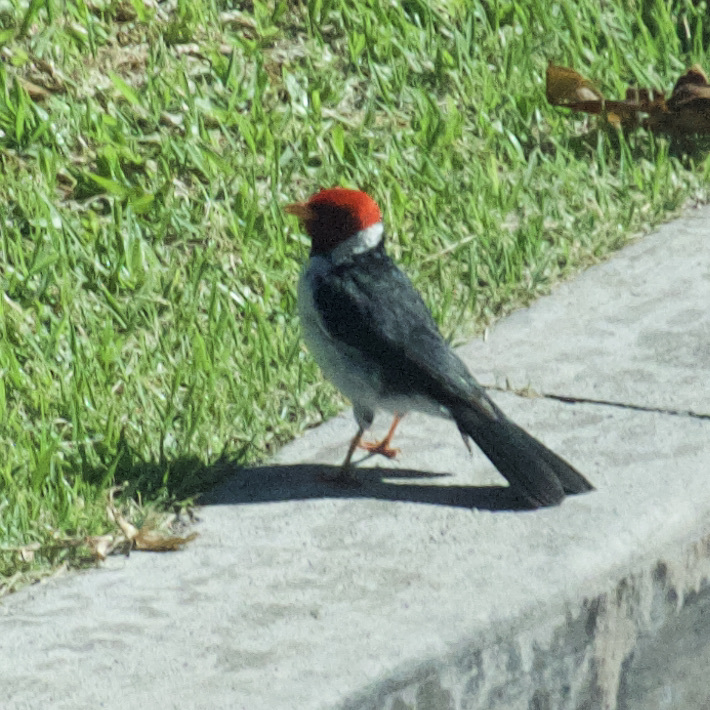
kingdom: Animalia
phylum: Chordata
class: Aves
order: Passeriformes
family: Thraupidae
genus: Paroaria
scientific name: Paroaria capitata
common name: Yellow-billed cardinal
